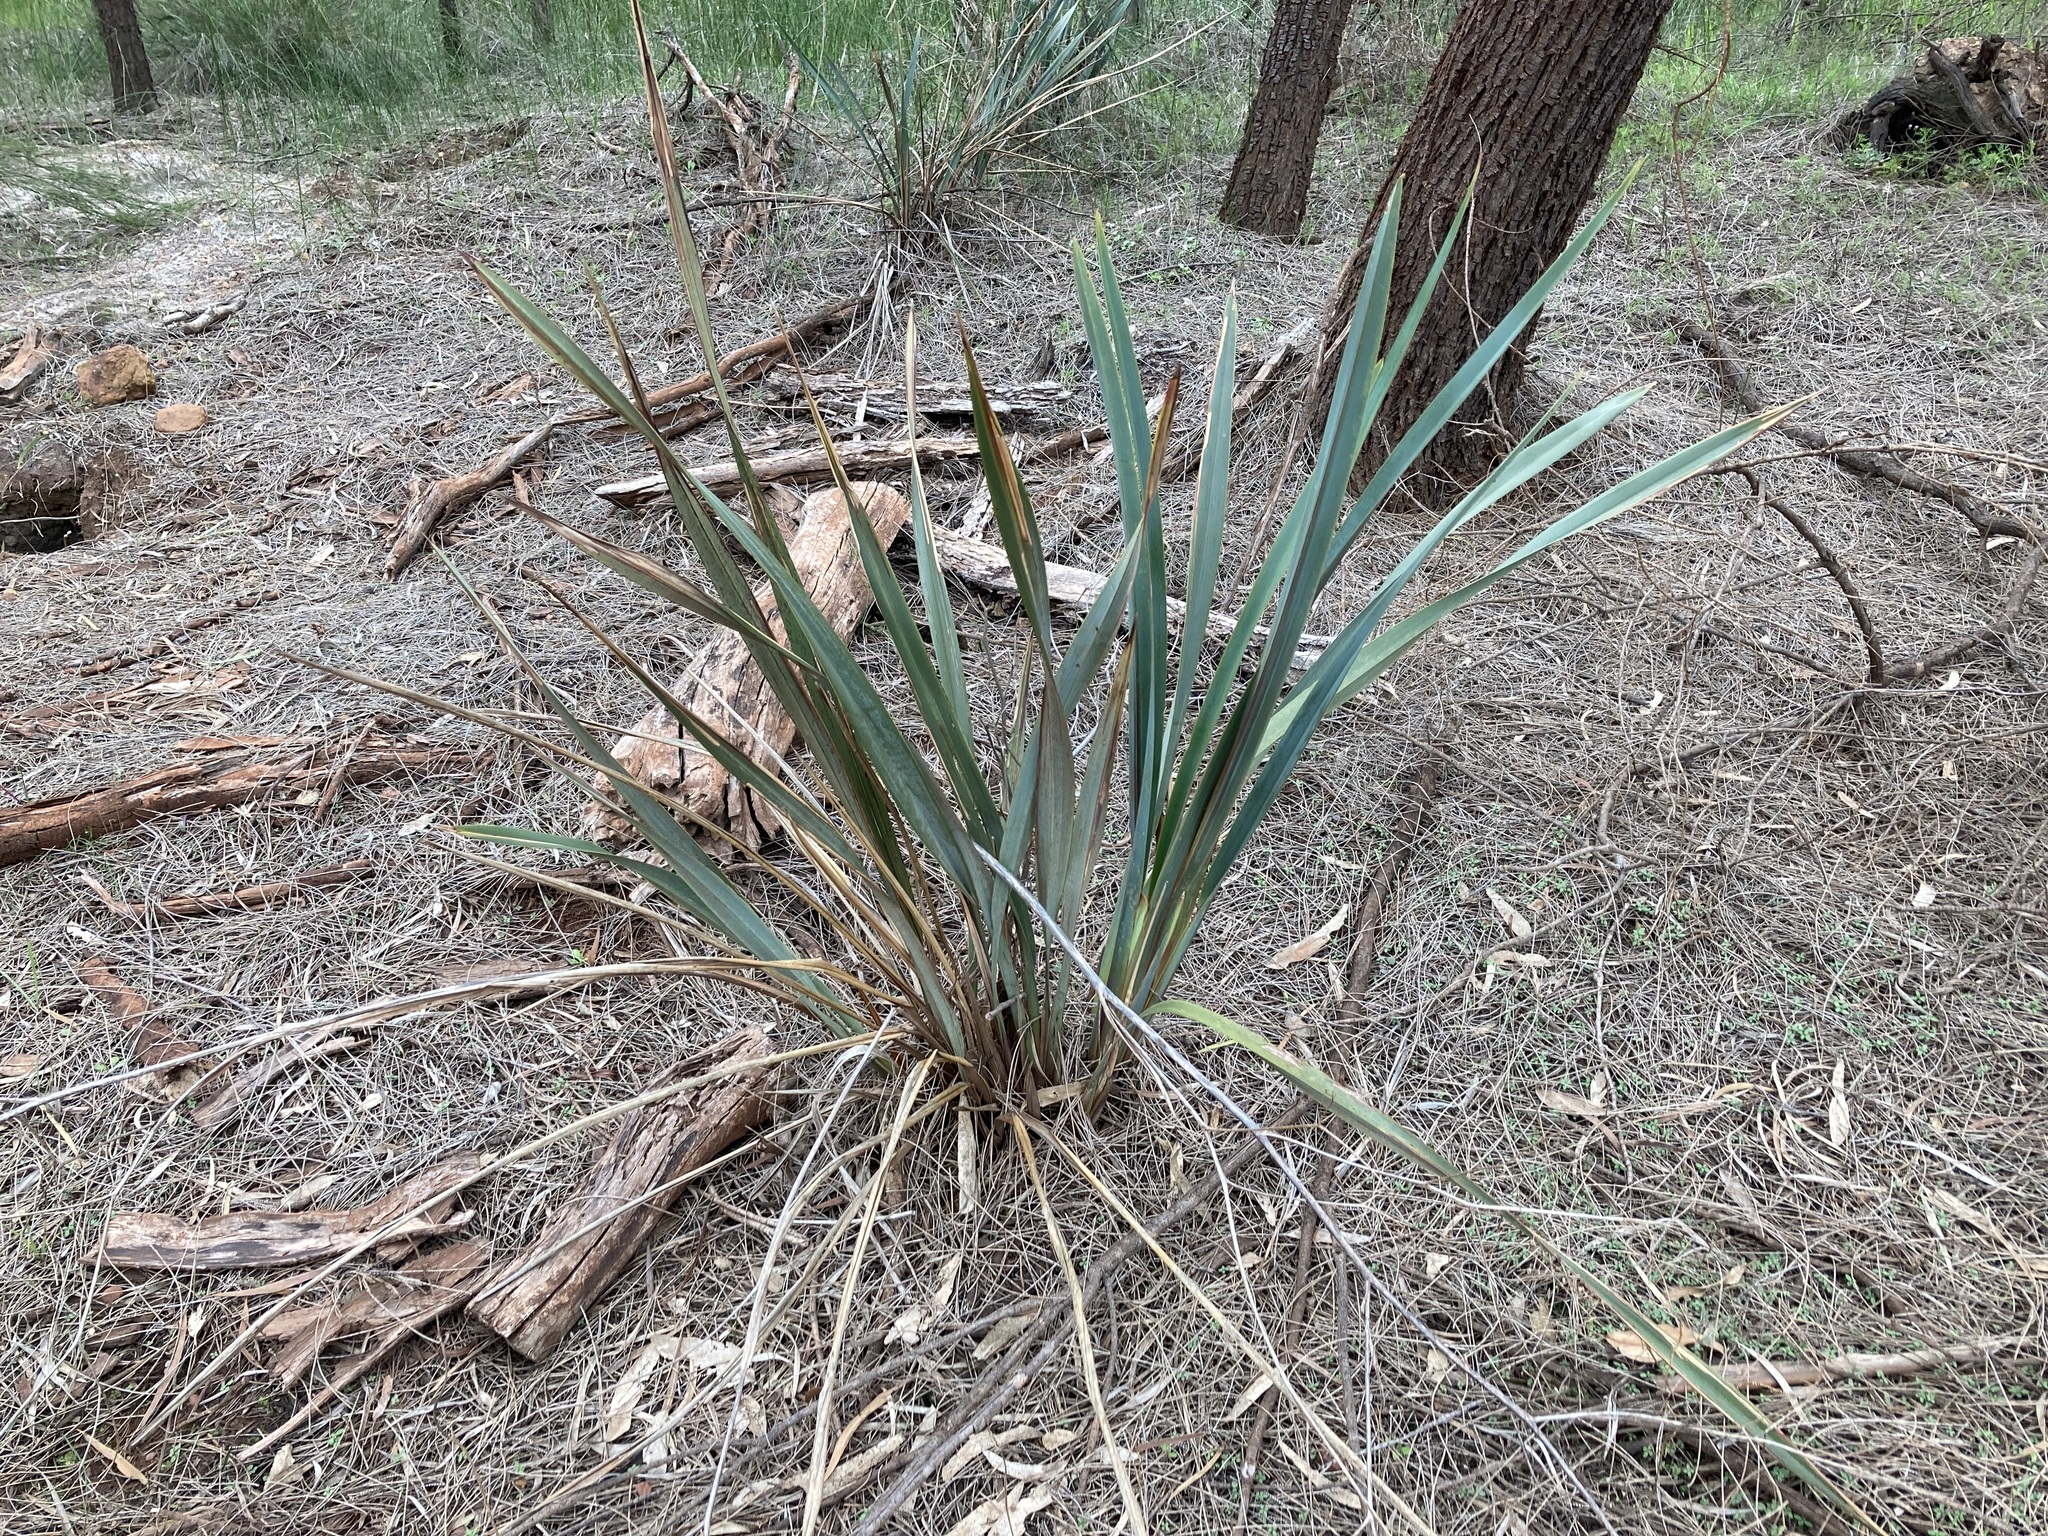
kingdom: Plantae
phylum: Tracheophyta
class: Liliopsida
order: Asparagales
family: Asphodelaceae
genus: Dianella
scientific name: Dianella revoluta
